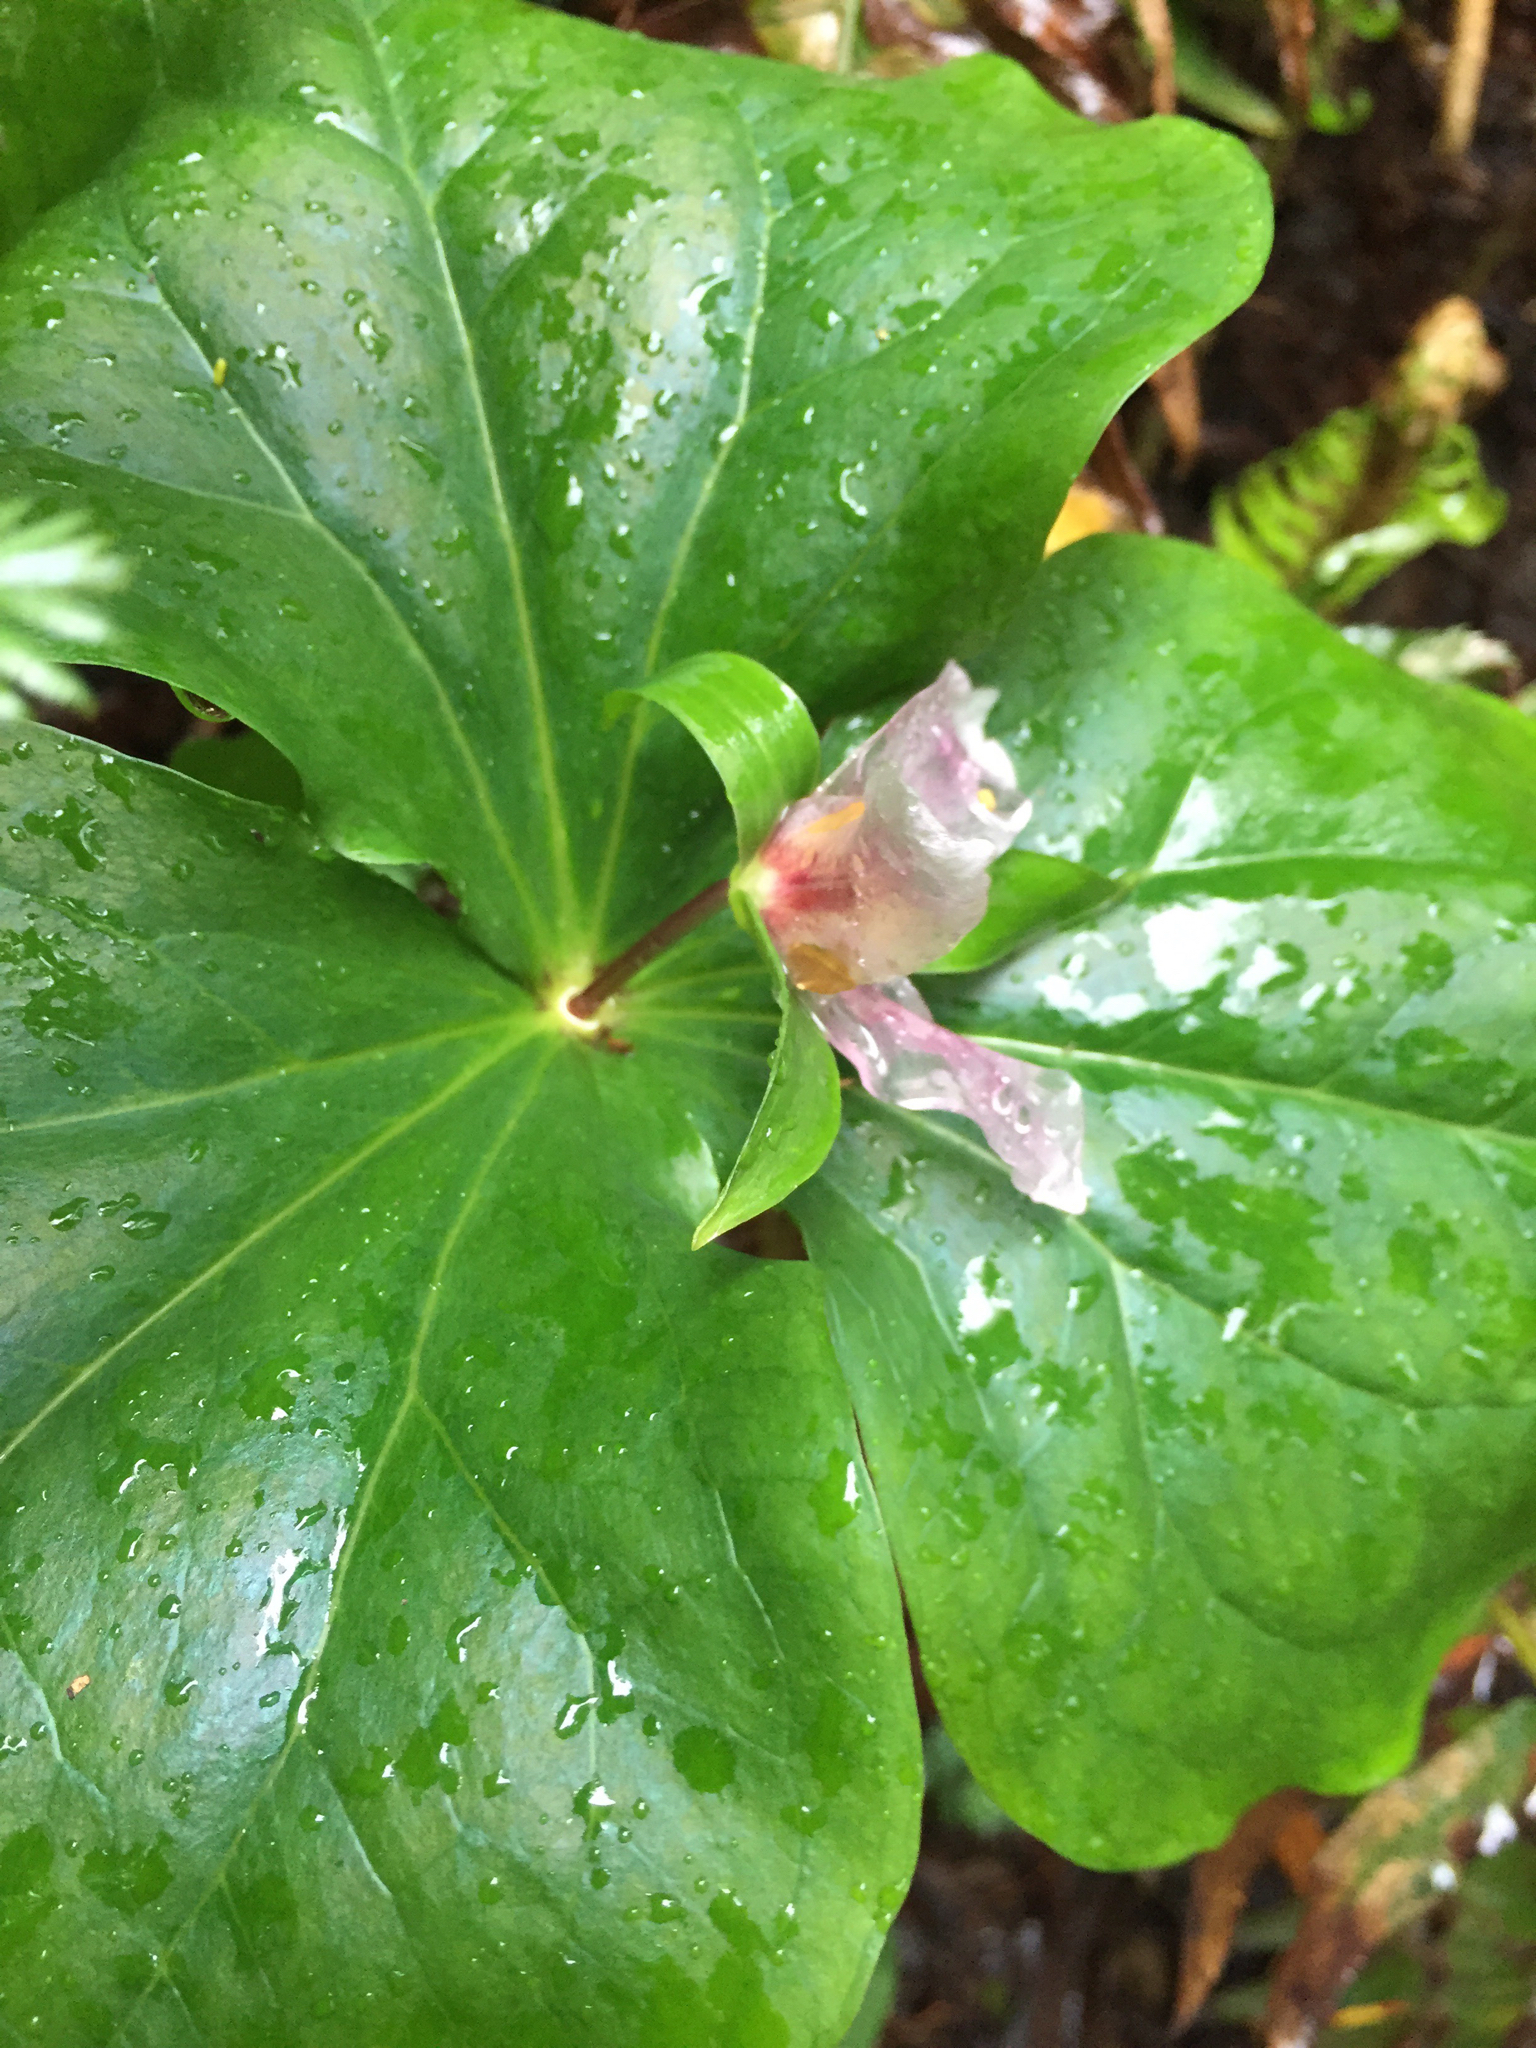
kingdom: Plantae
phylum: Tracheophyta
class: Liliopsida
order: Liliales
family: Melanthiaceae
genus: Trillium
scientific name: Trillium ovatum
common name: Pacific trillium
